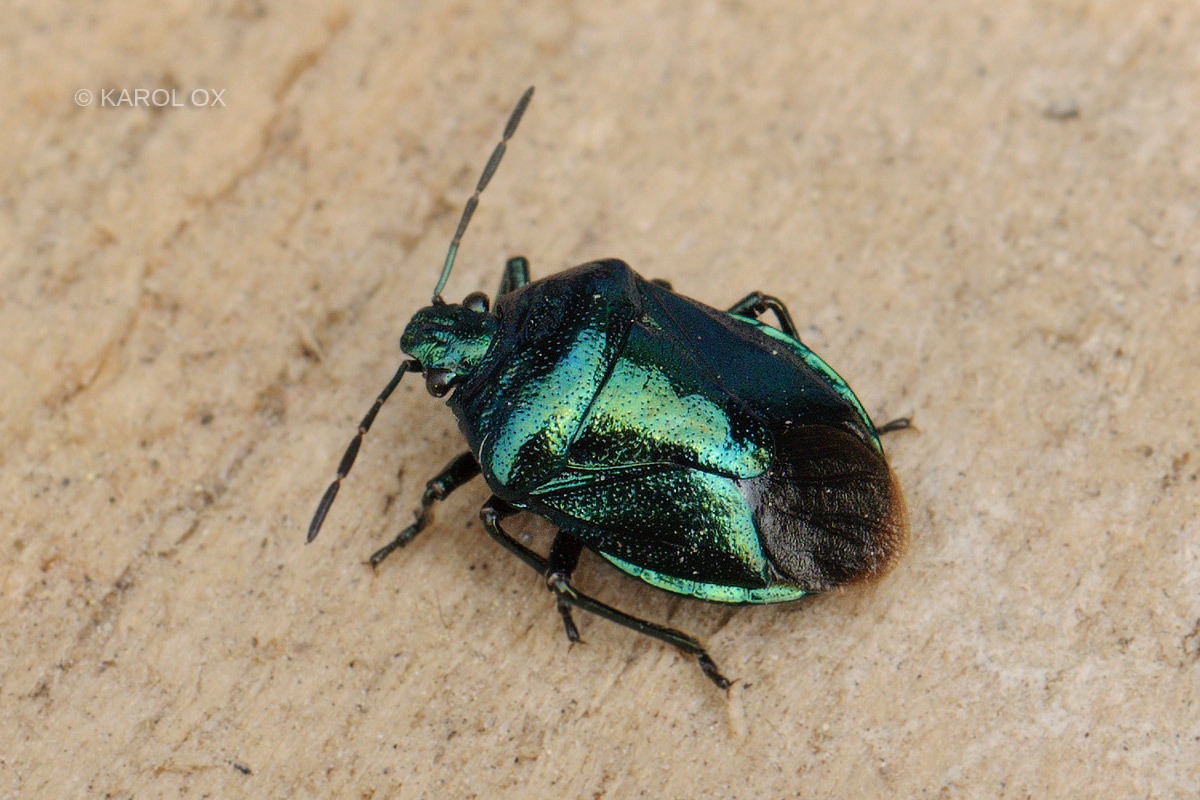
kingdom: Animalia
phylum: Arthropoda
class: Insecta
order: Hemiptera
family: Pentatomidae
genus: Zicrona
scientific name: Zicrona caerulea
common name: Blue shieldbug
